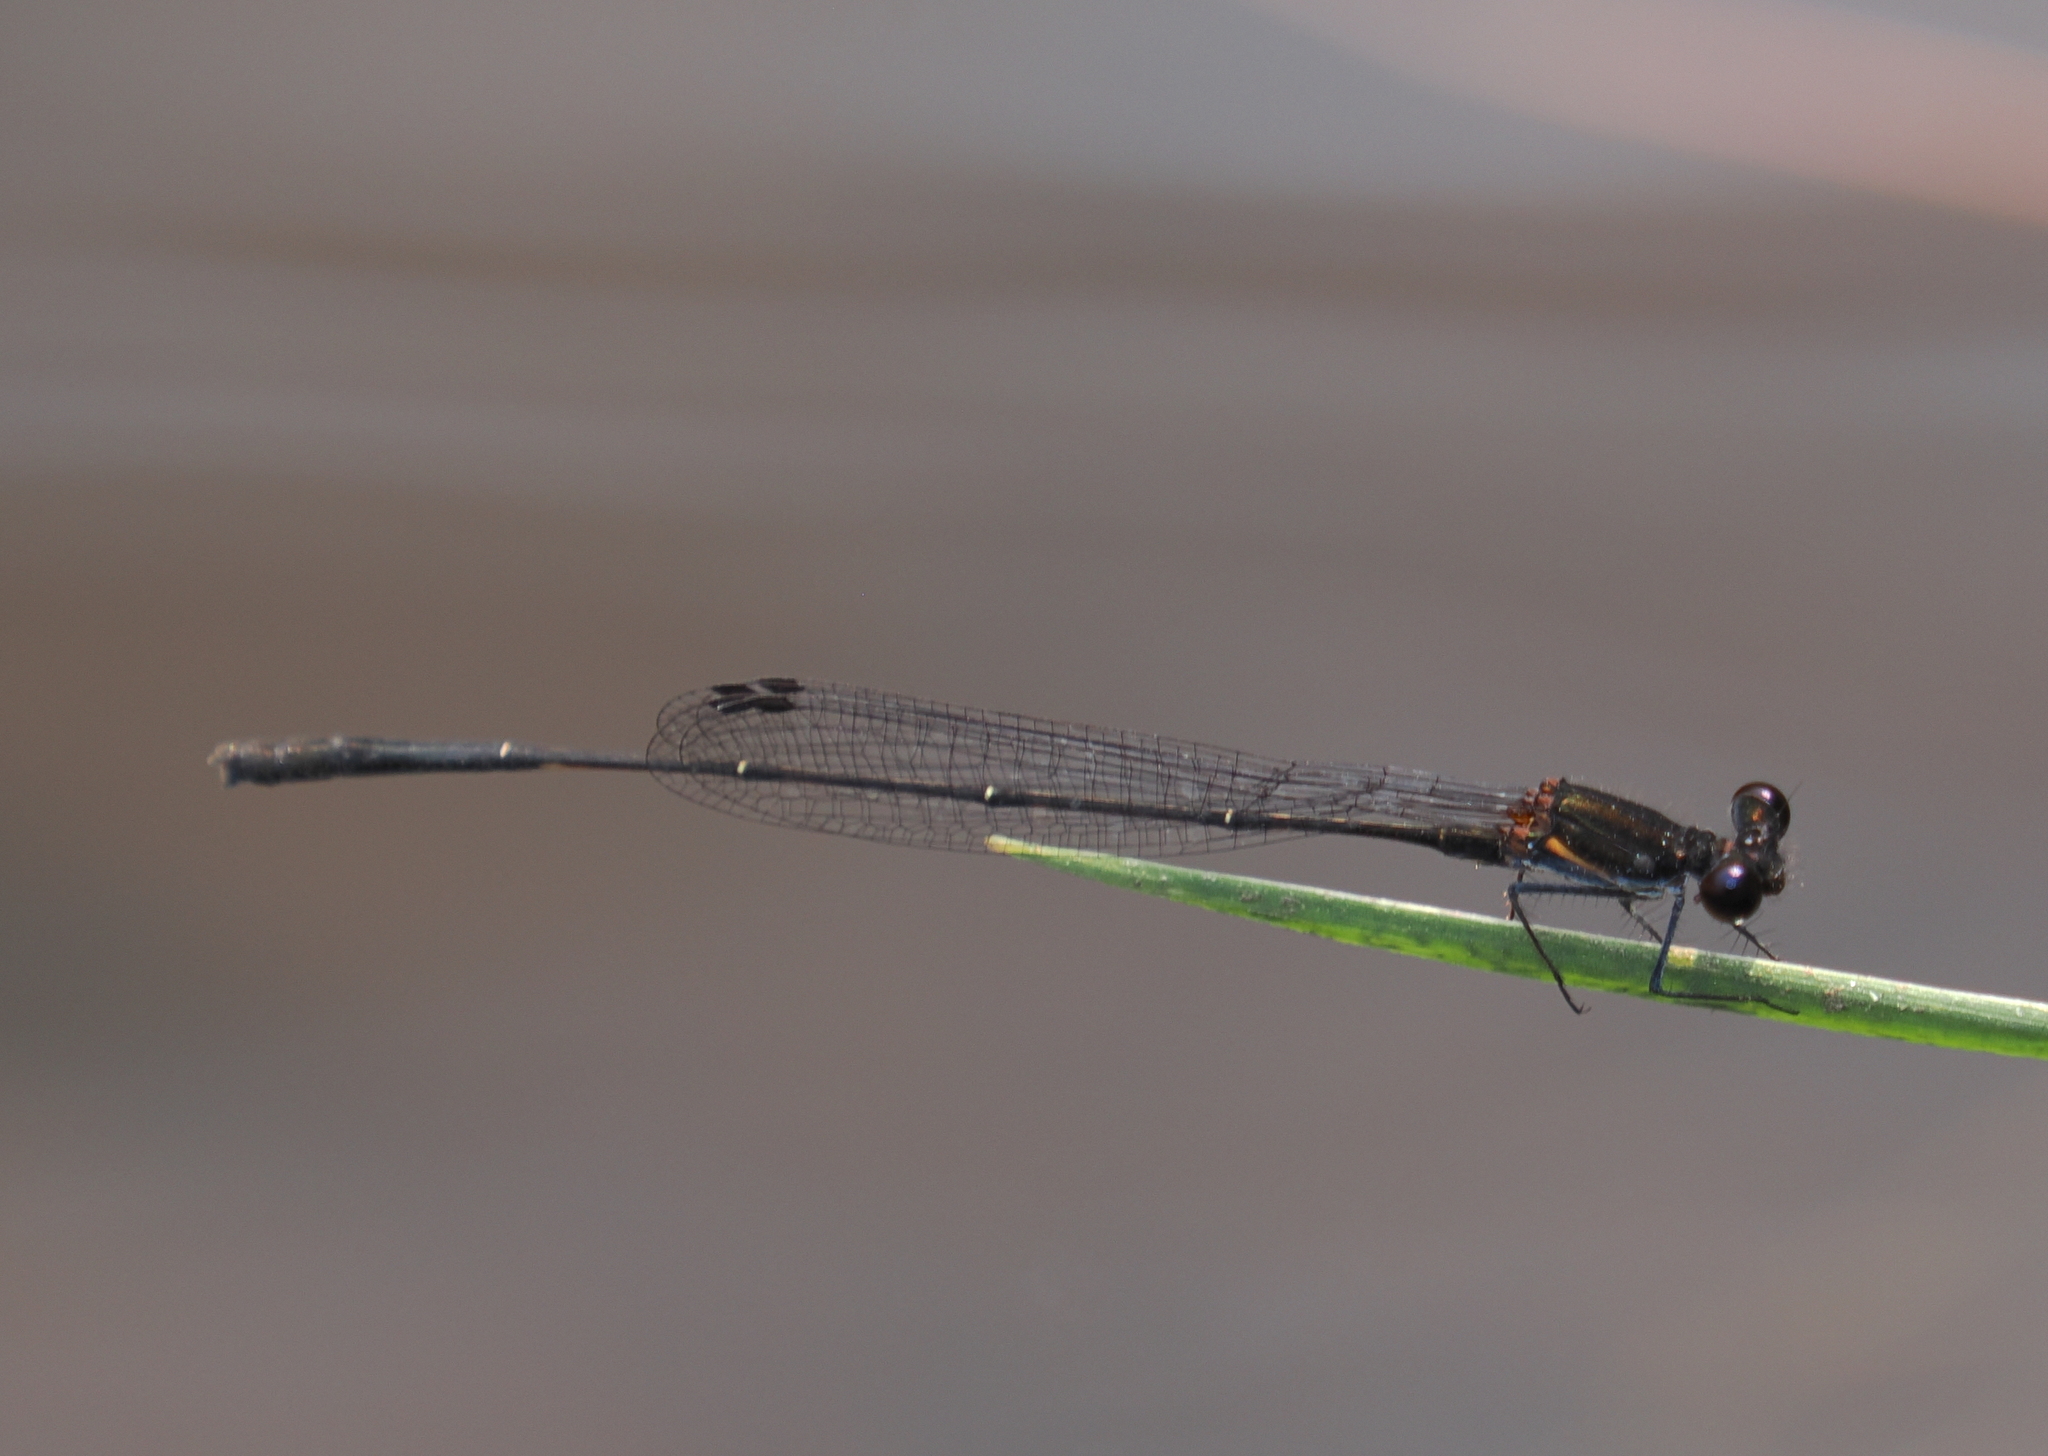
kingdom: Animalia
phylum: Arthropoda
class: Insecta
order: Odonata
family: Platycnemididae
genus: Prodasineura
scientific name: Prodasineura autumnalis
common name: Black threadtail
